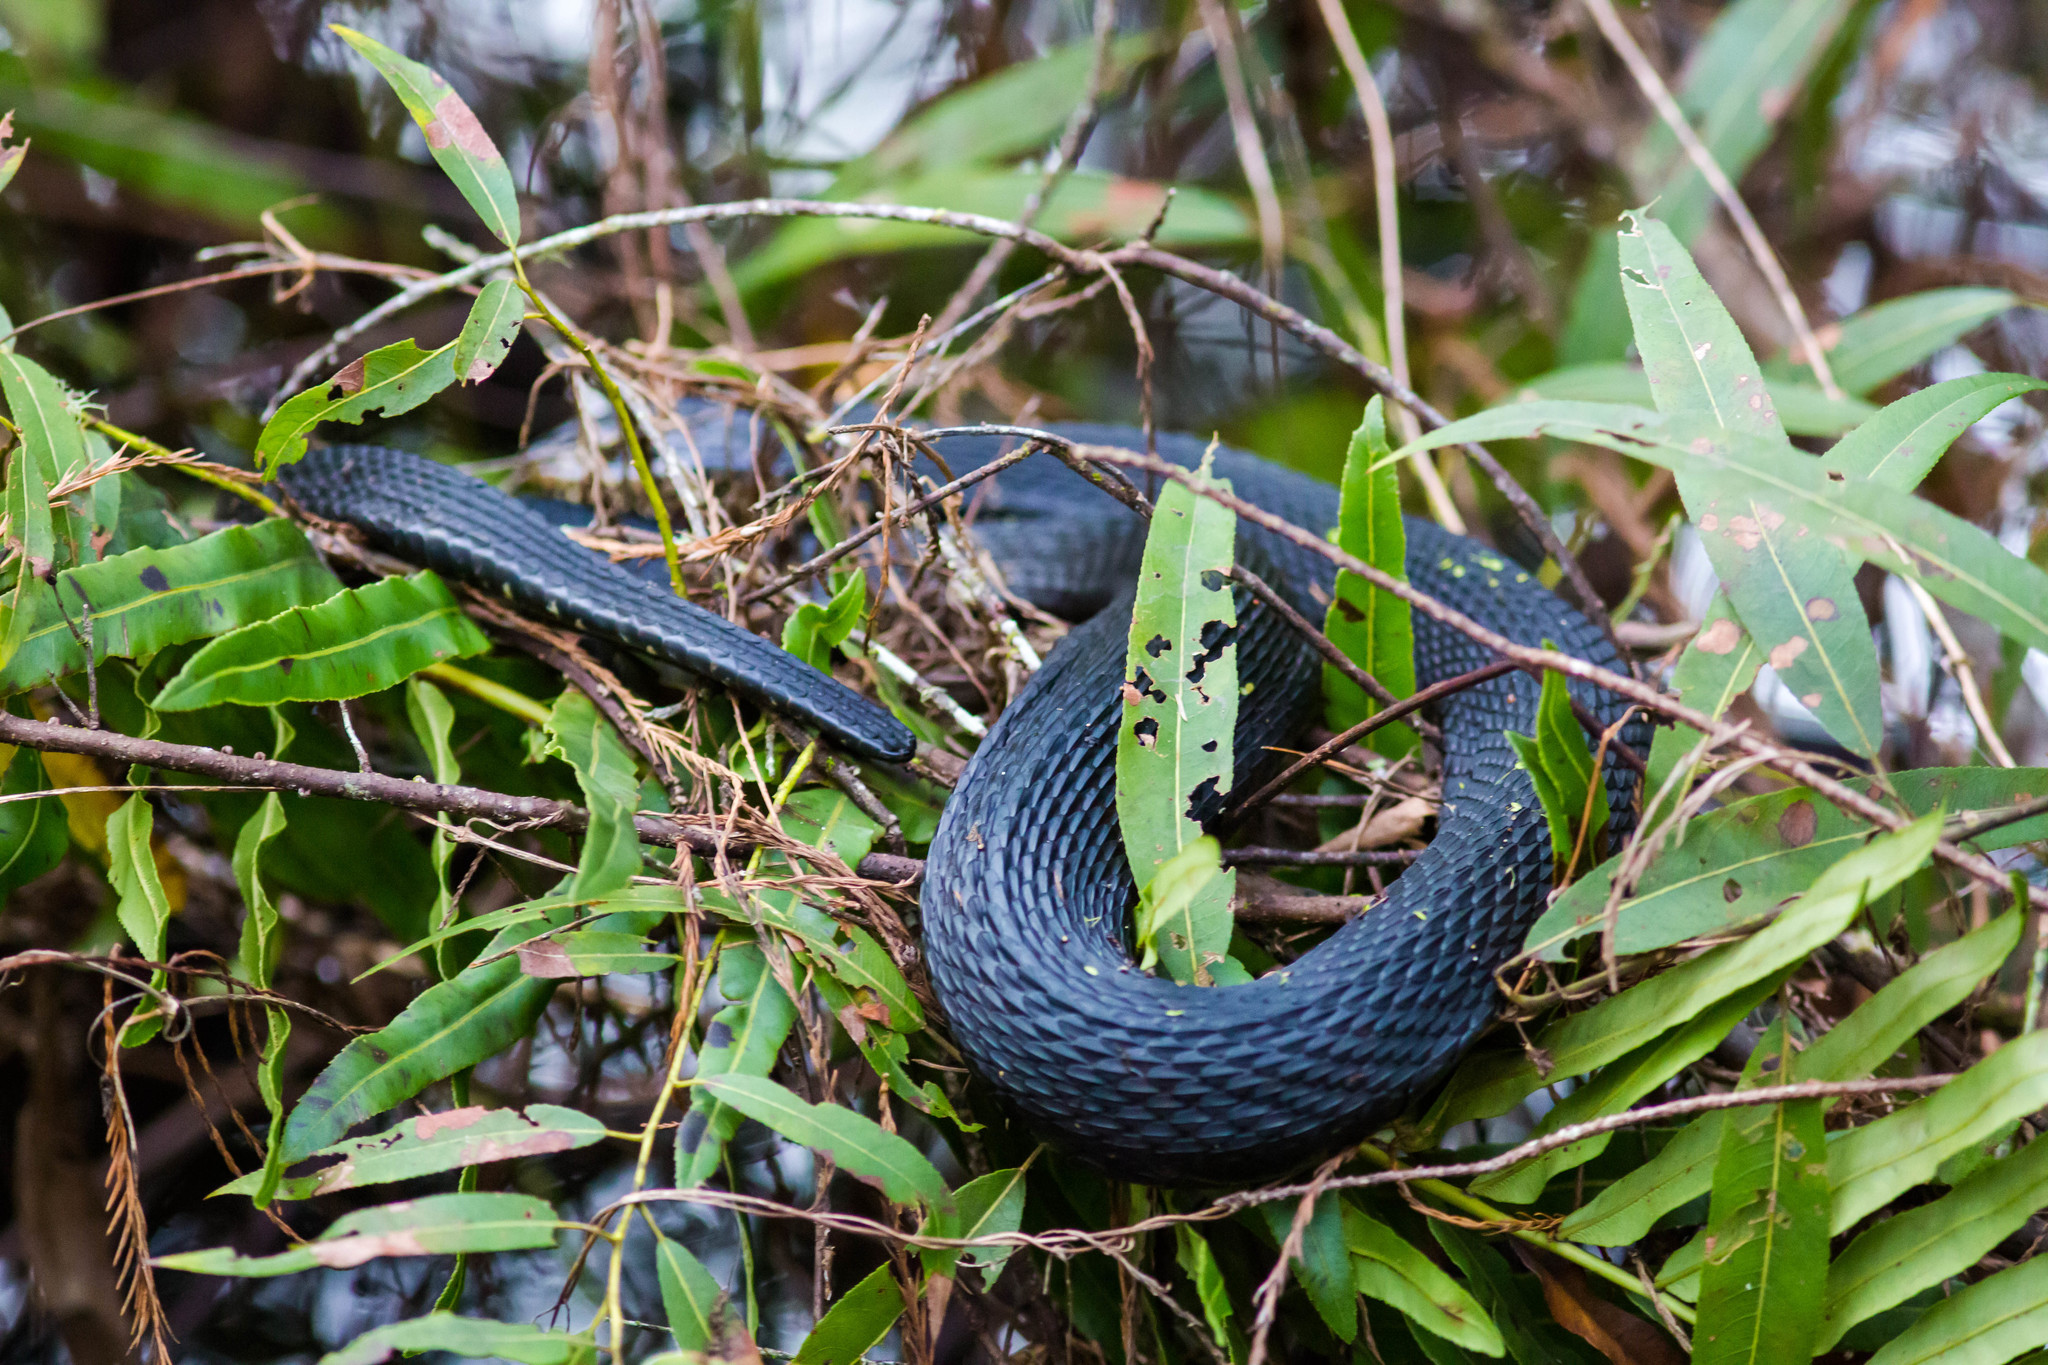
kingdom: Animalia
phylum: Chordata
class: Squamata
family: Colubridae
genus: Nerodia
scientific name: Nerodia fasciata
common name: Southern water snake
